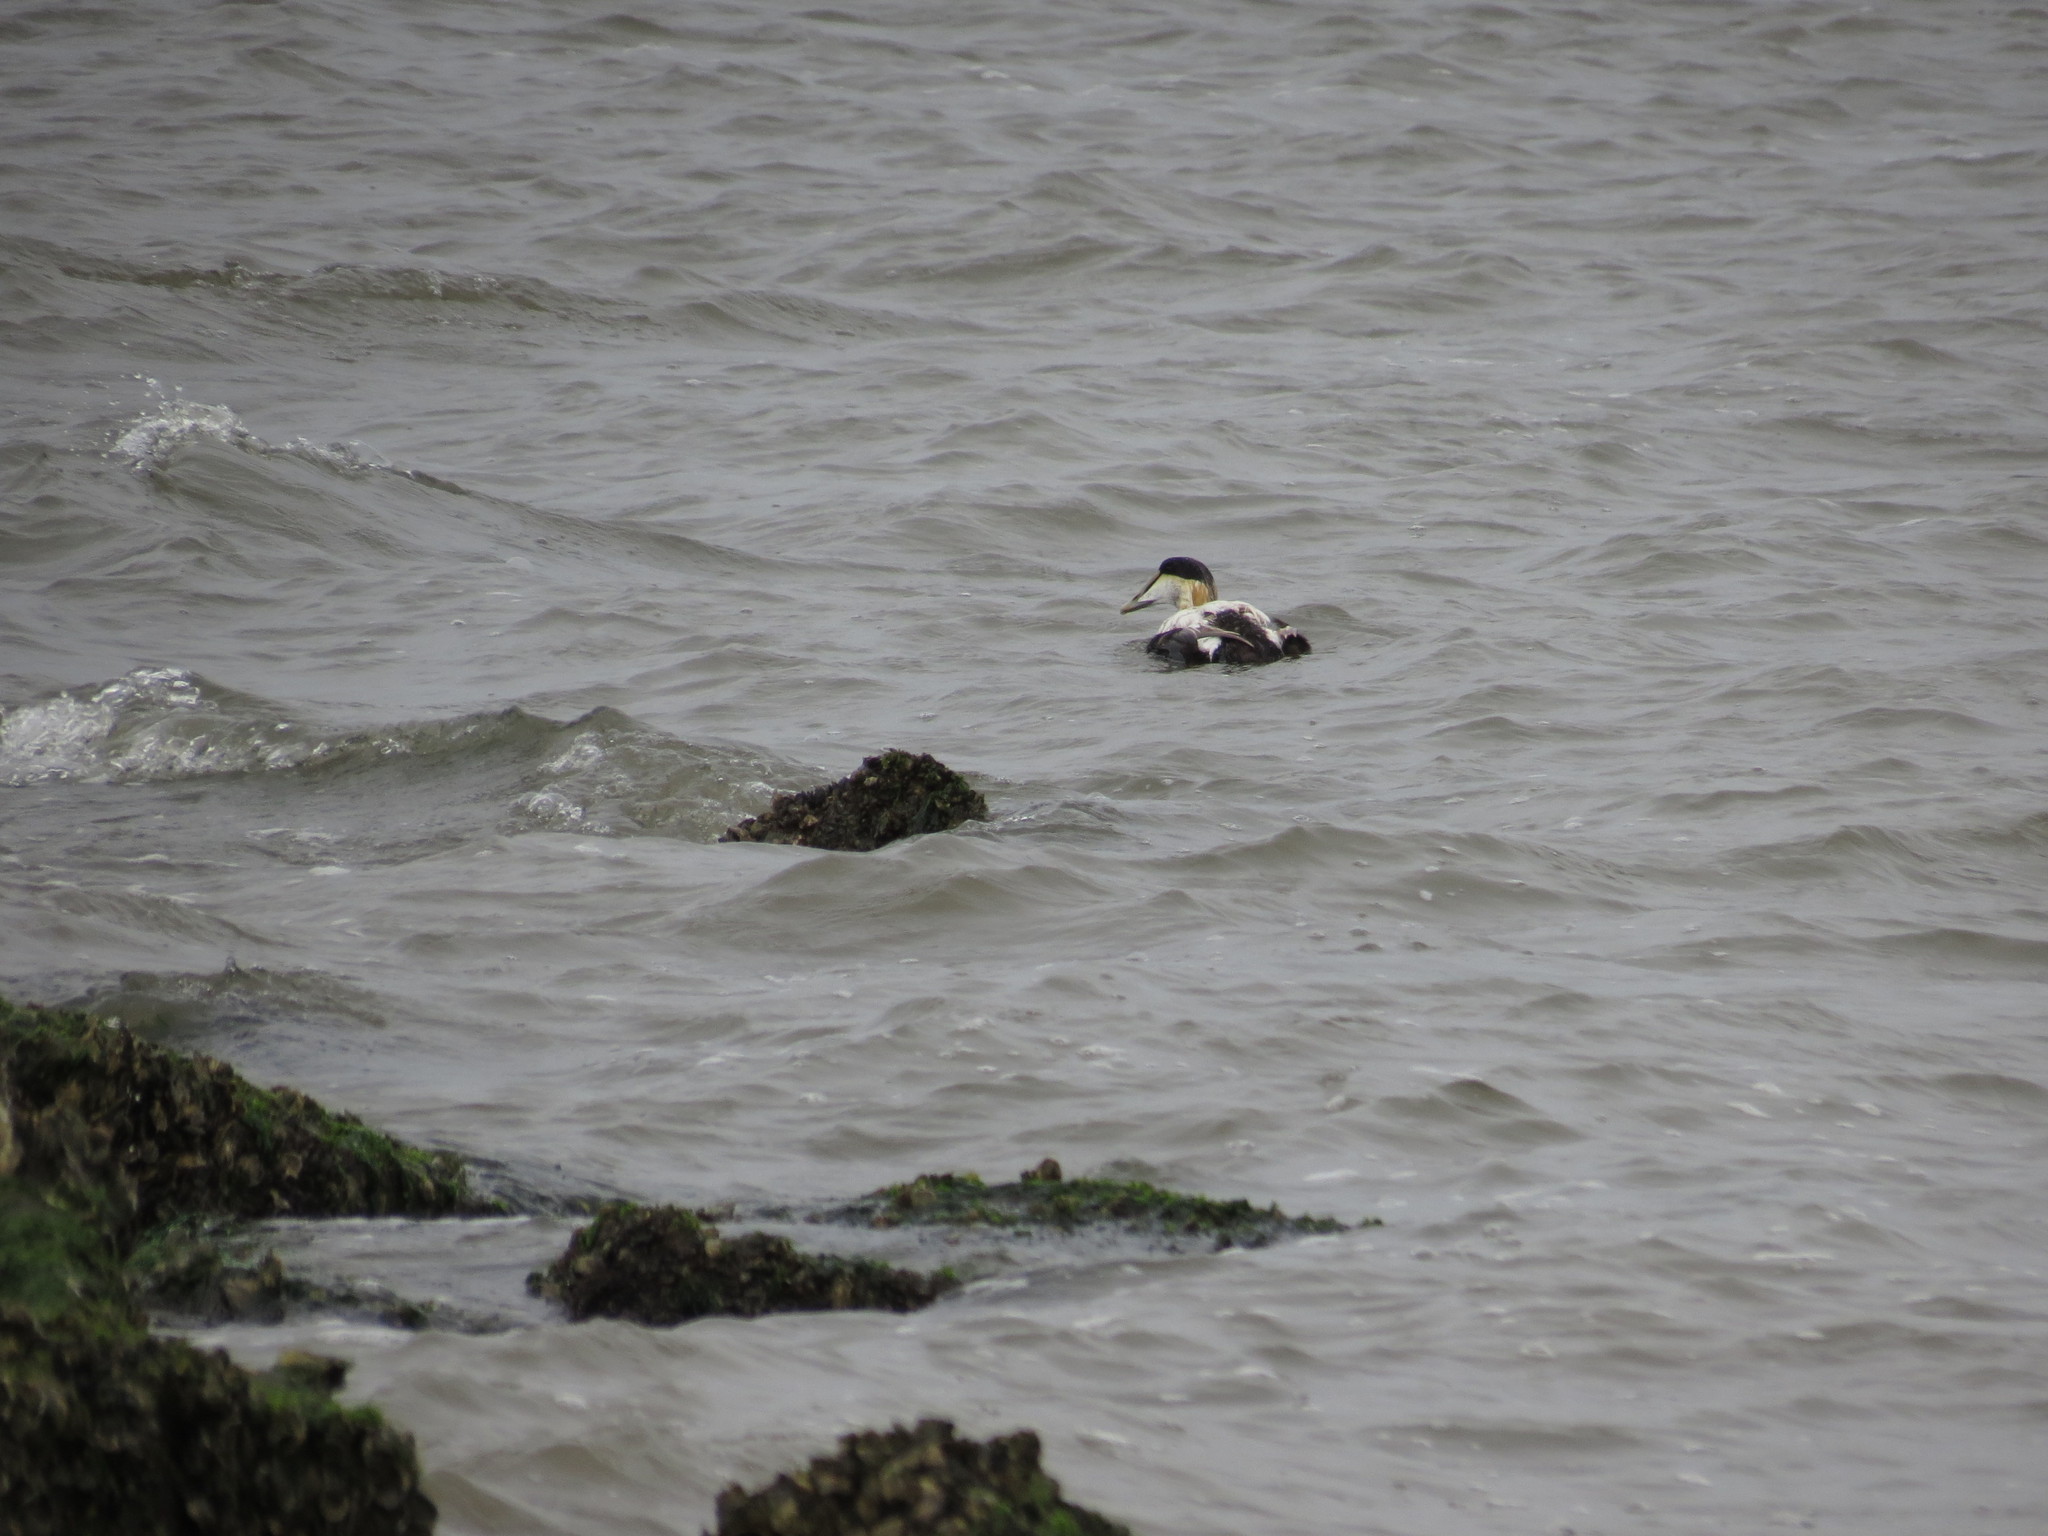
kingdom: Animalia
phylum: Chordata
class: Aves
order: Anseriformes
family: Anatidae
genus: Somateria
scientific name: Somateria mollissima
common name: Common eider
